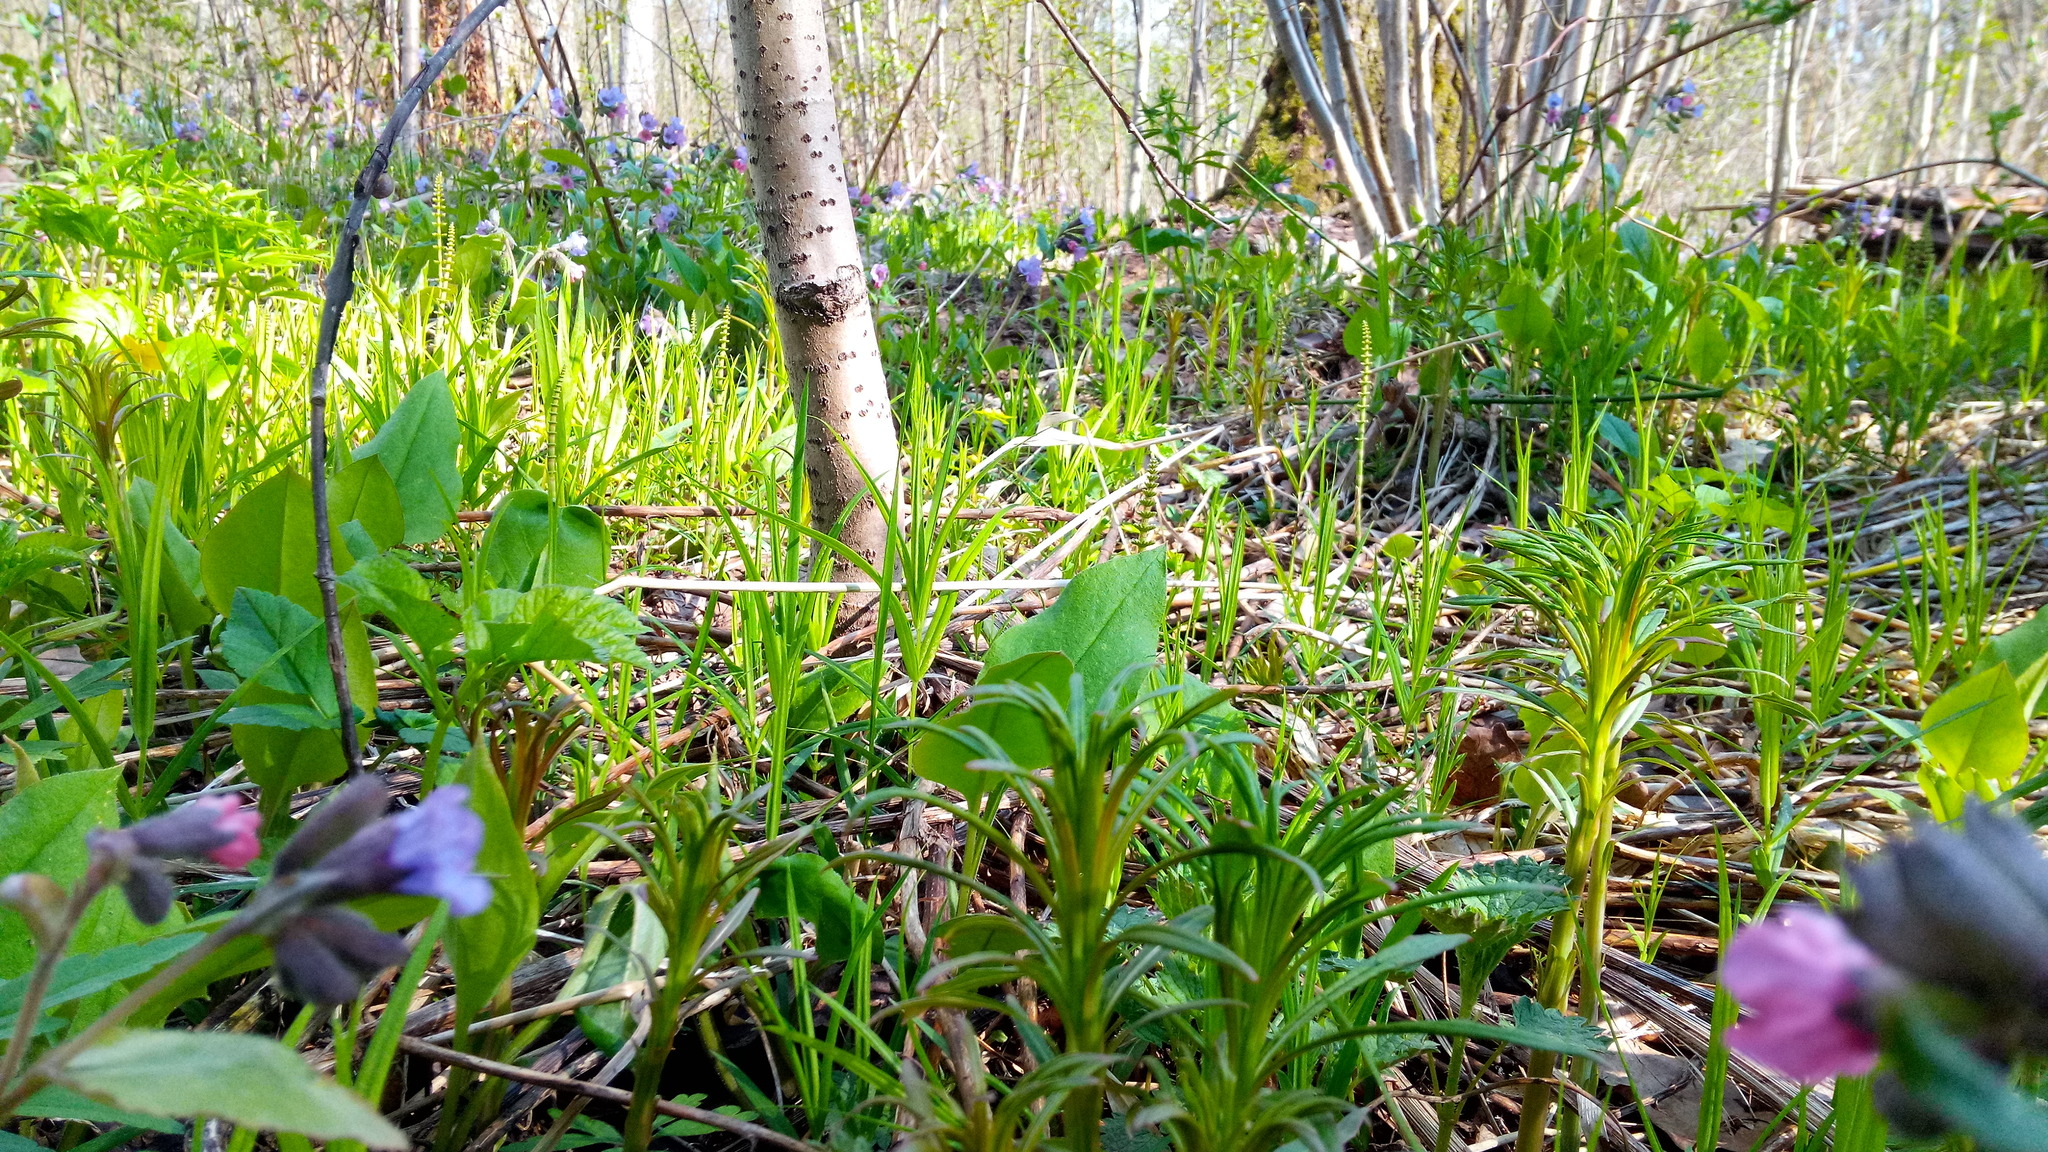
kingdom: Plantae
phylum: Tracheophyta
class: Magnoliopsida
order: Caryophyllales
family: Caryophyllaceae
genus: Rabelera
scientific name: Rabelera holostea
